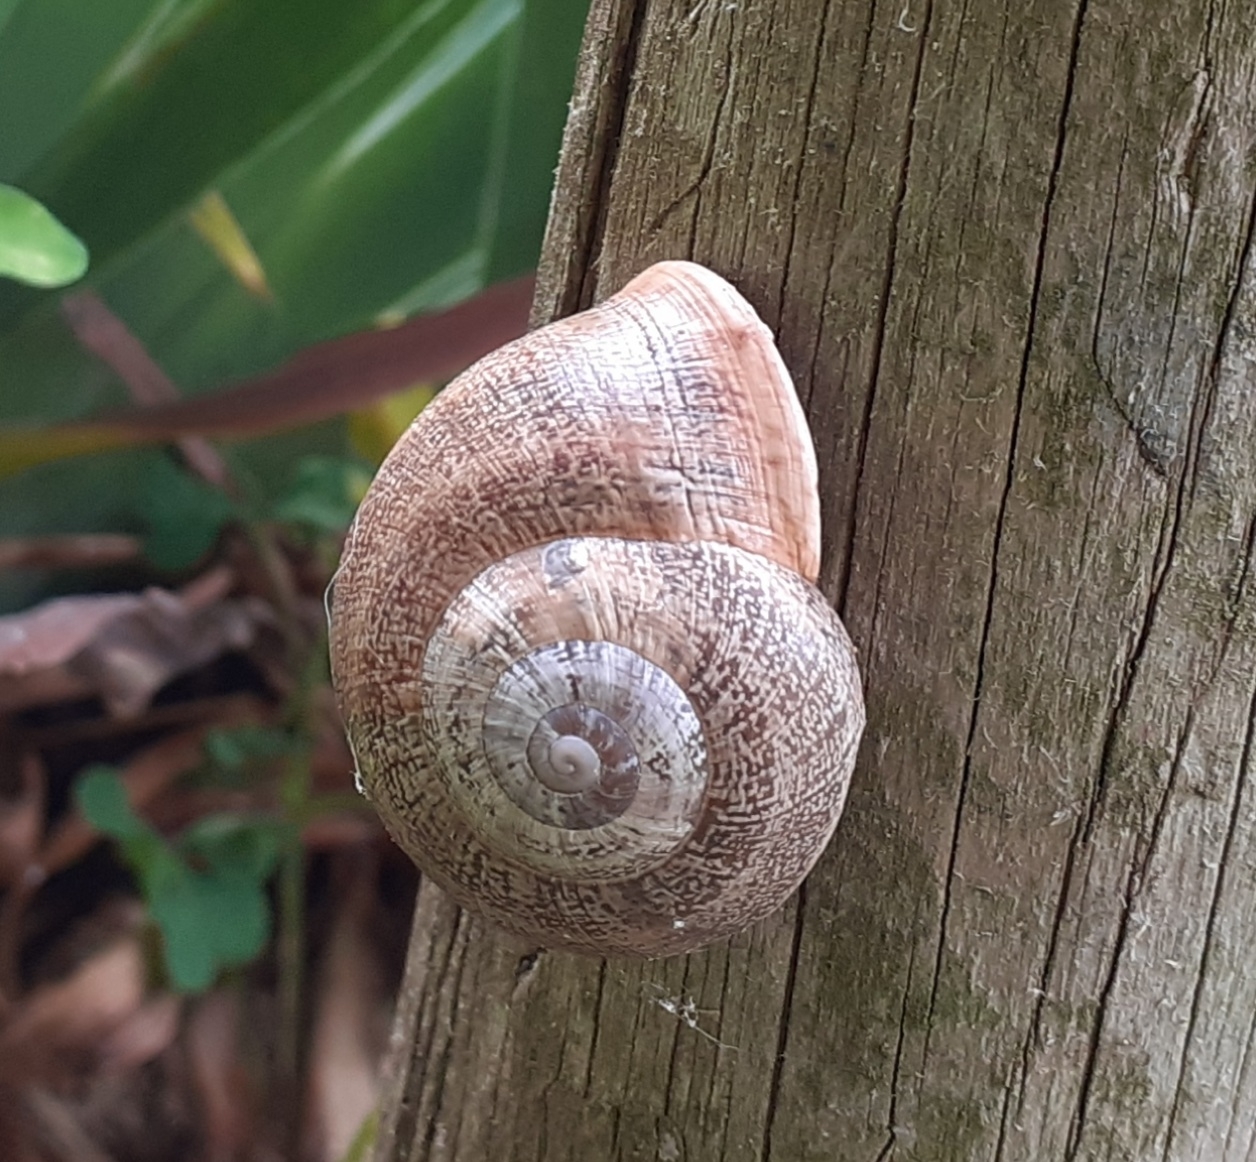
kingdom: Animalia
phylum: Mollusca
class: Gastropoda
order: Stylommatophora
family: Helicidae
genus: Otala
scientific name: Otala lactea
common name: Milk snail
